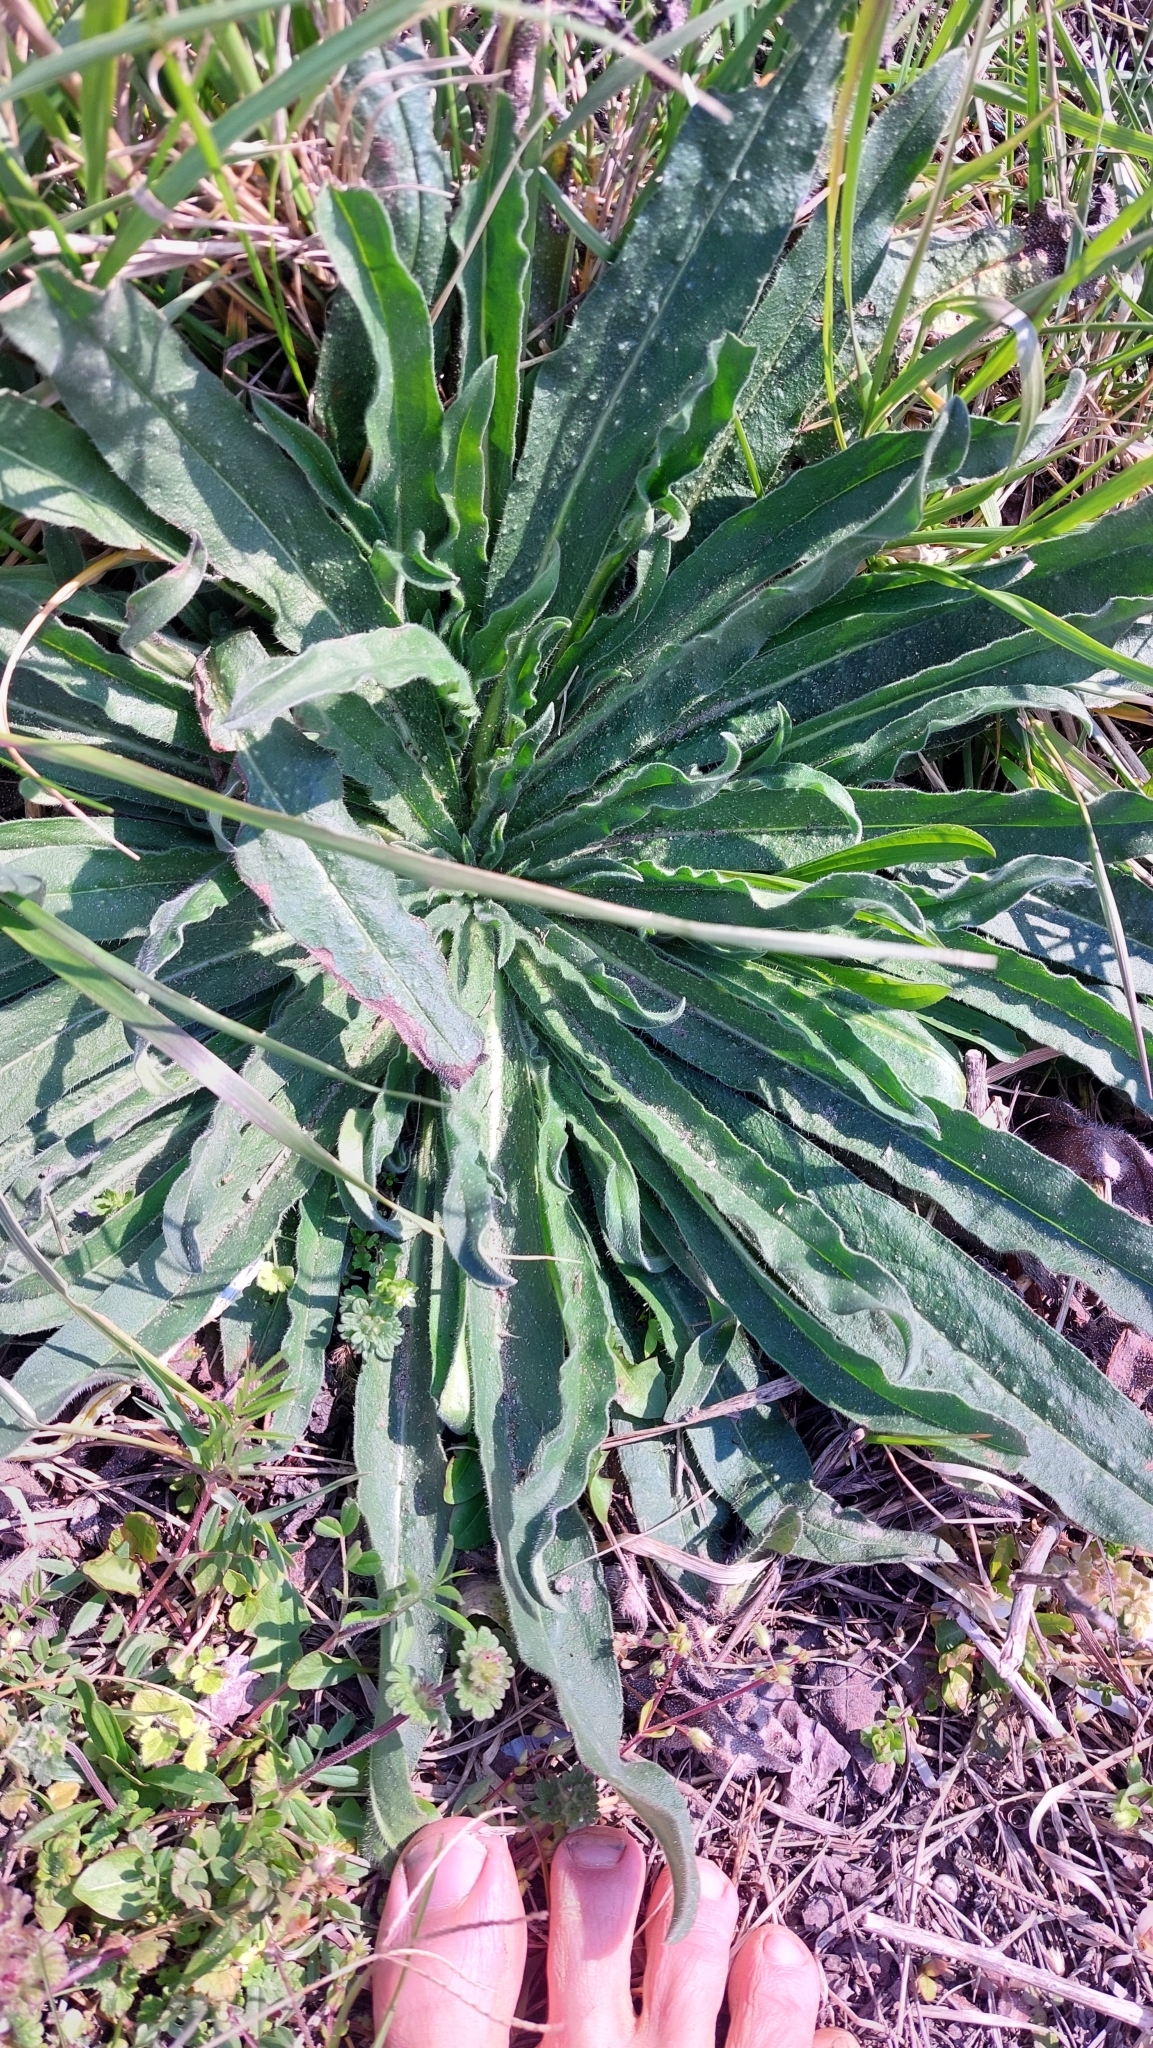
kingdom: Plantae
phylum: Tracheophyta
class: Magnoliopsida
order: Boraginales
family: Boraginaceae
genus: Echium
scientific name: Echium vulgare
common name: Common viper's bugloss
